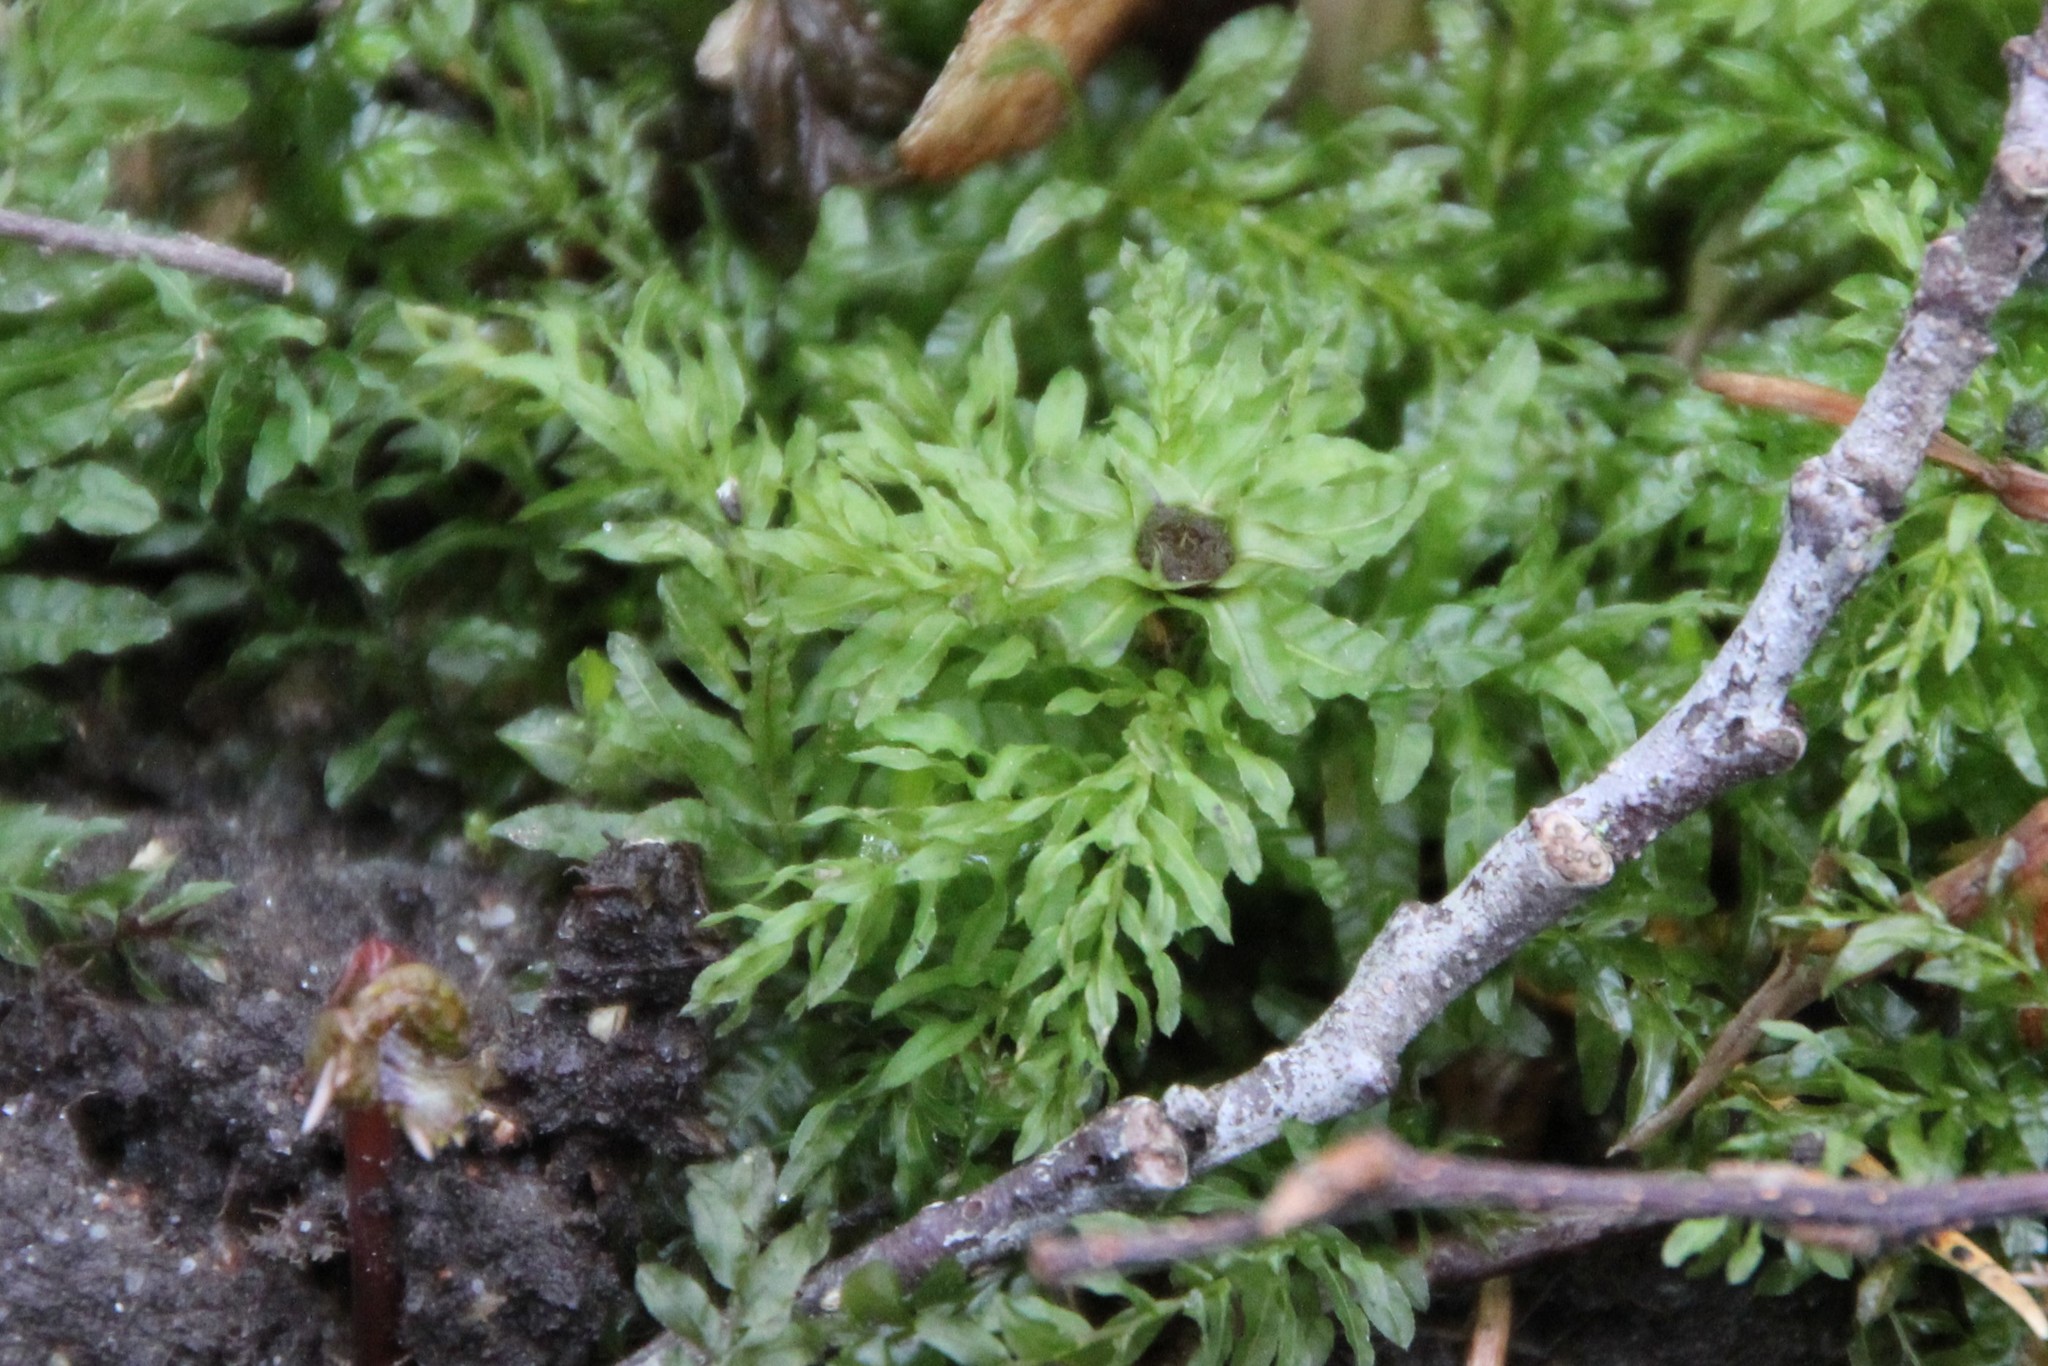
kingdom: Plantae
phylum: Bryophyta
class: Bryopsida
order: Bryales
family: Mniaceae
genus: Plagiomnium
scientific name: Plagiomnium undulatum
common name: Hart's-tongue thyme-moss
